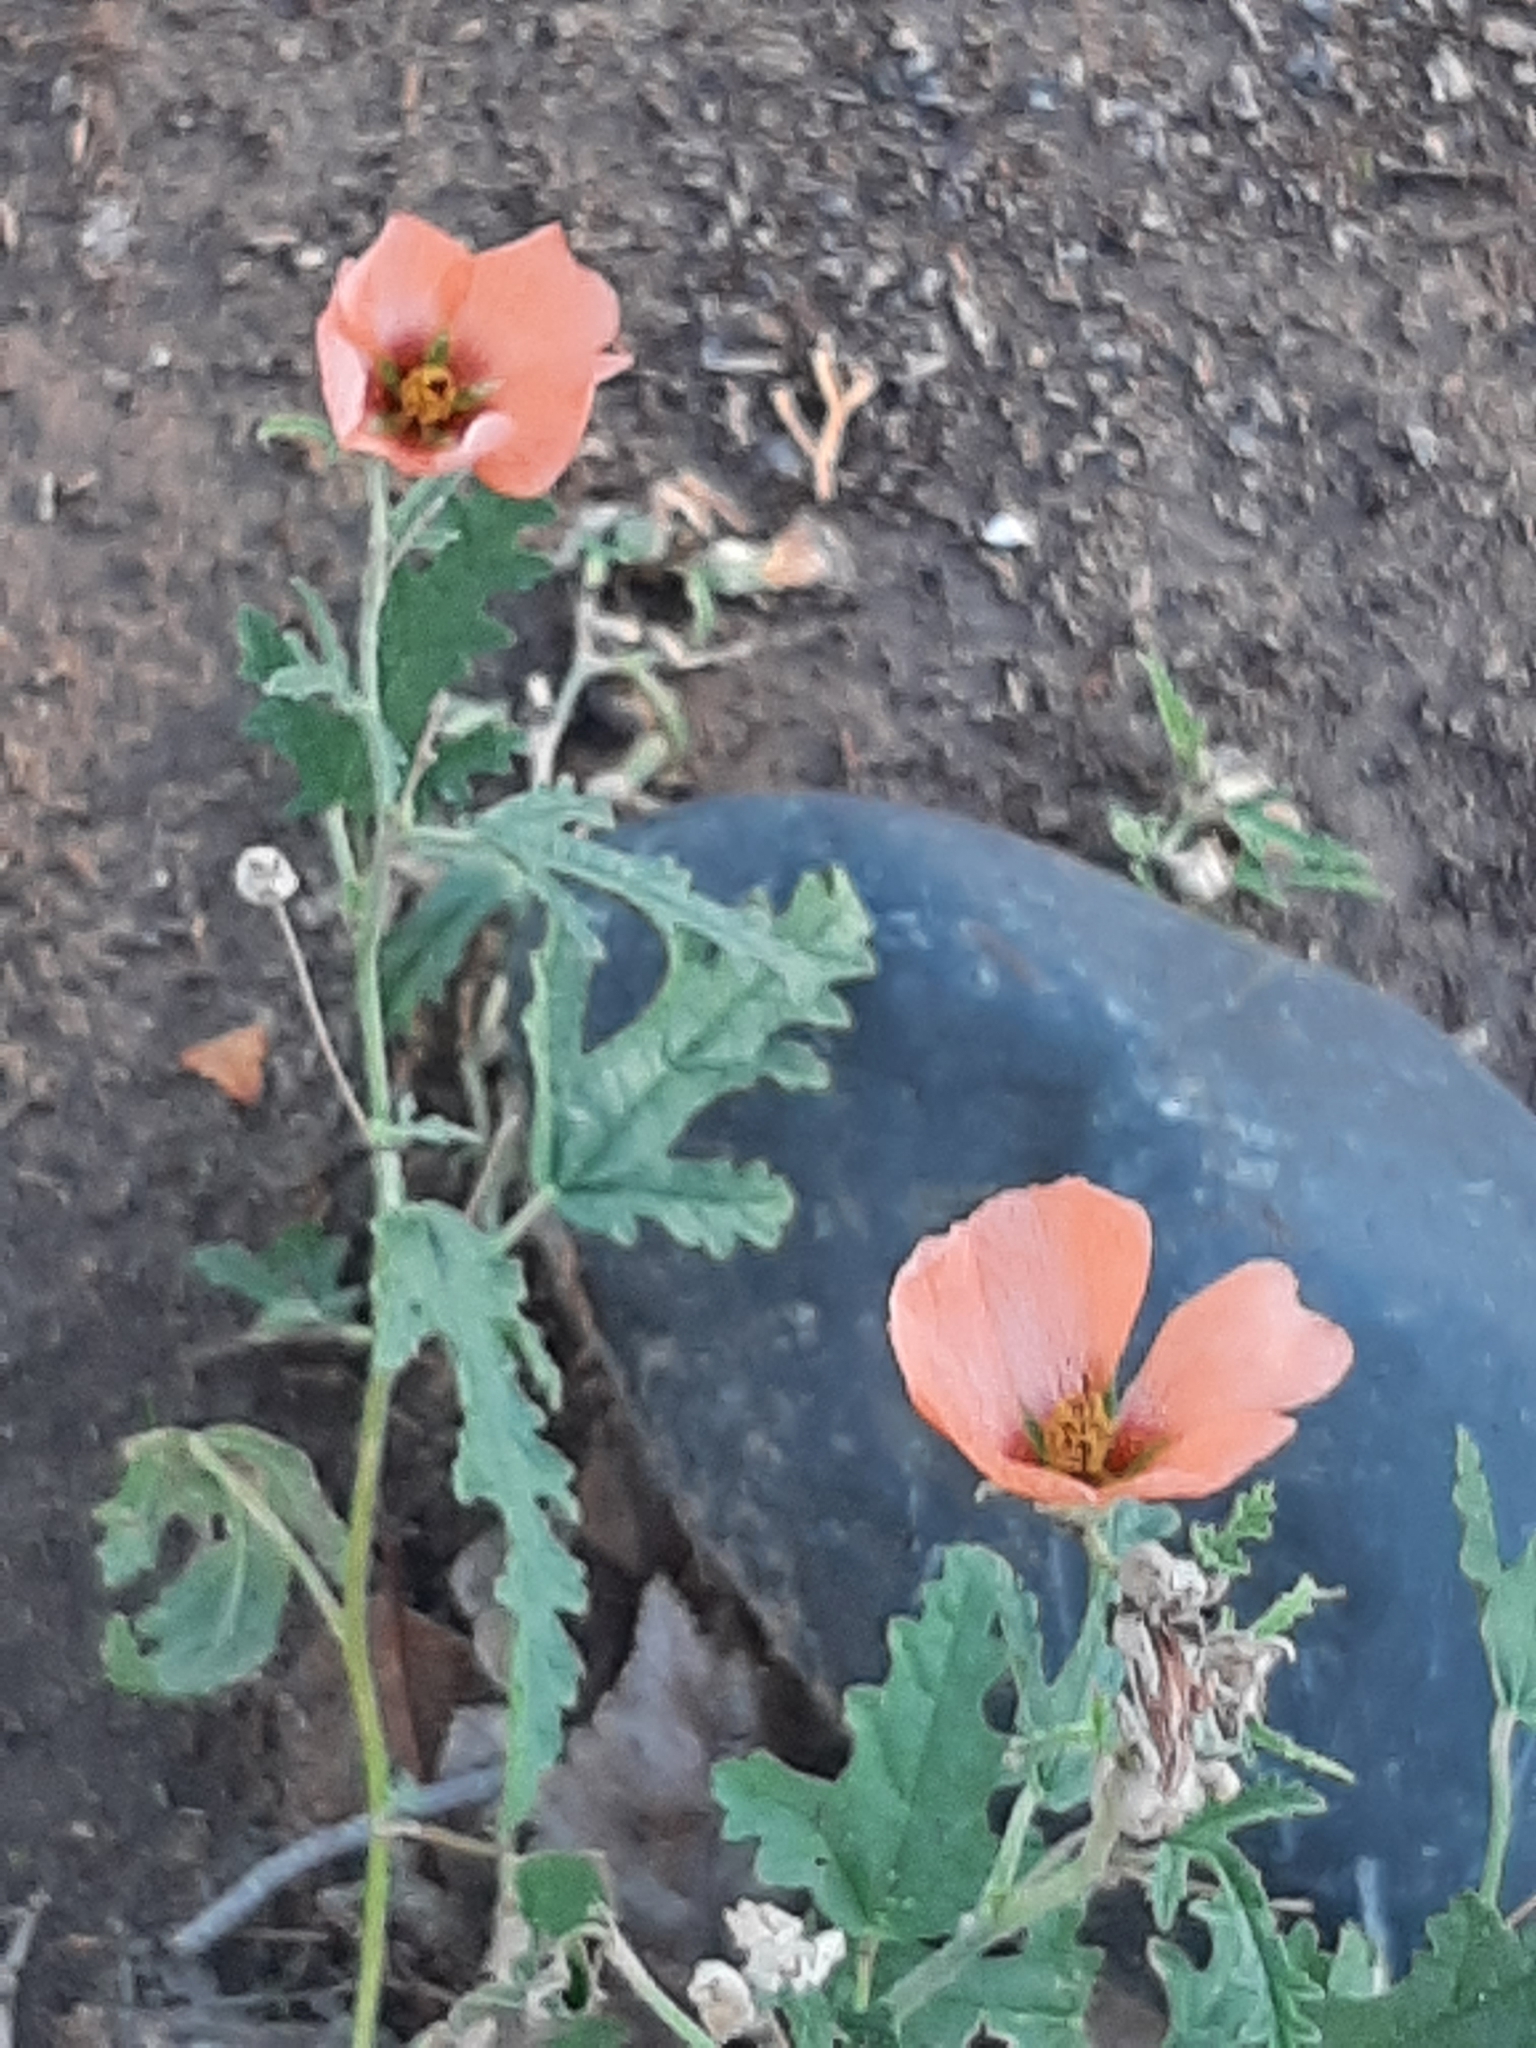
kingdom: Plantae
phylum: Tracheophyta
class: Magnoliopsida
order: Malvales
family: Malvaceae
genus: Sphaeralcea
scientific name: Sphaeralcea crispa
